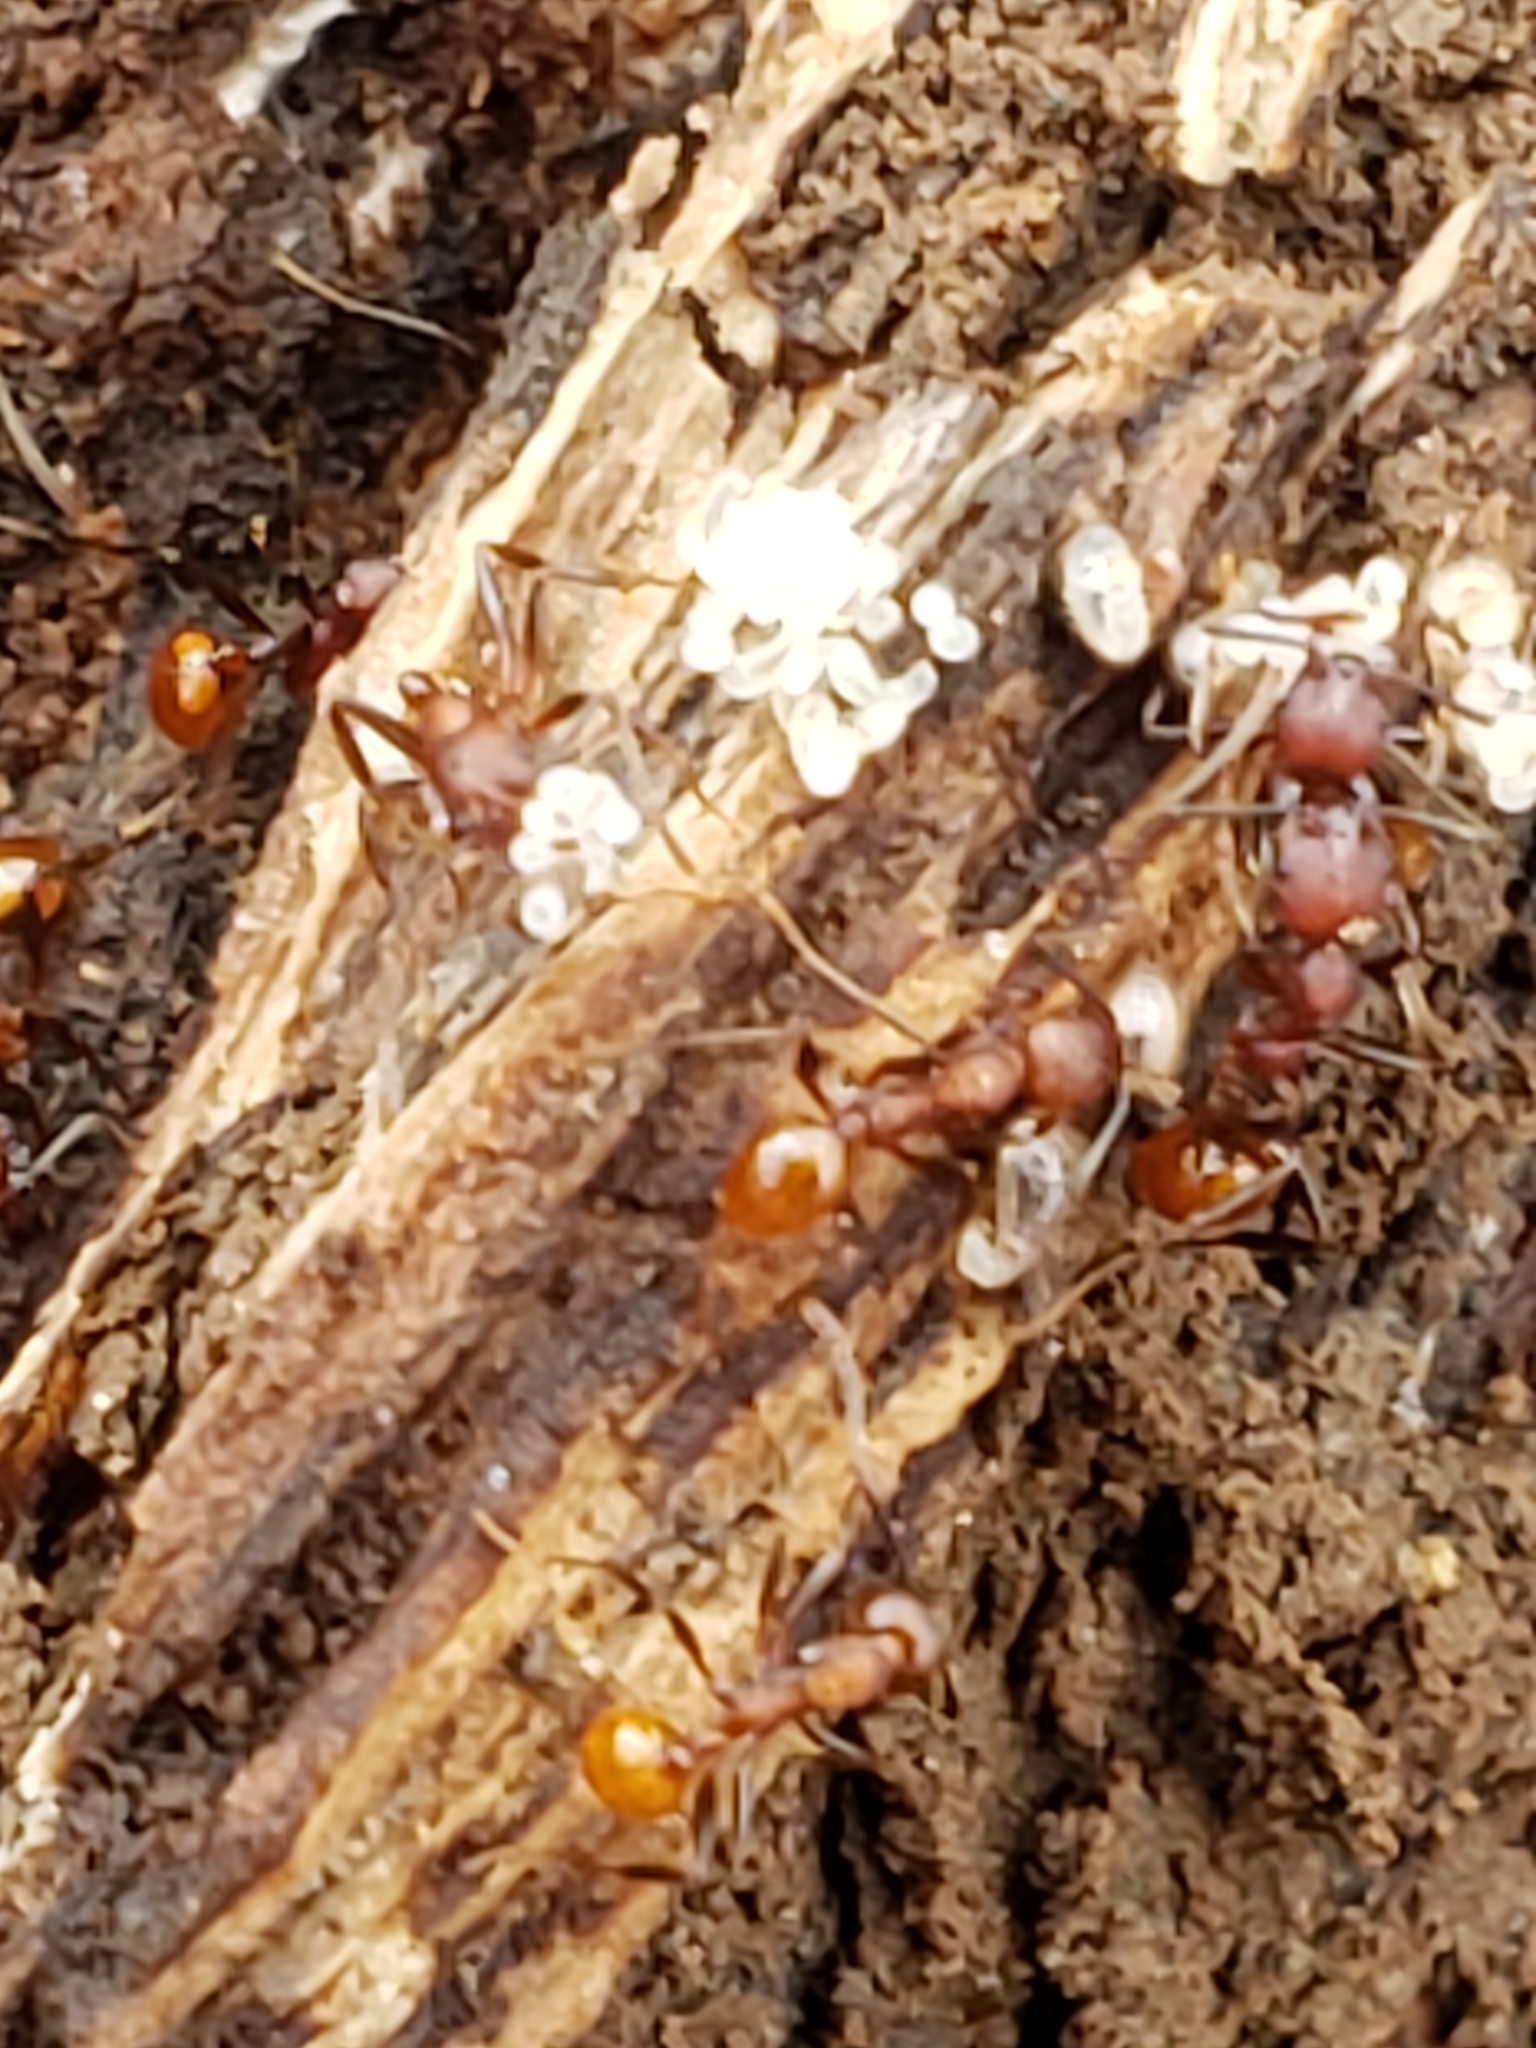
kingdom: Animalia
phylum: Arthropoda
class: Insecta
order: Hymenoptera
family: Formicidae
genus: Aphaenogaster
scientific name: Aphaenogaster tennesseensis
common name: Tennessee thread-waisted ant
